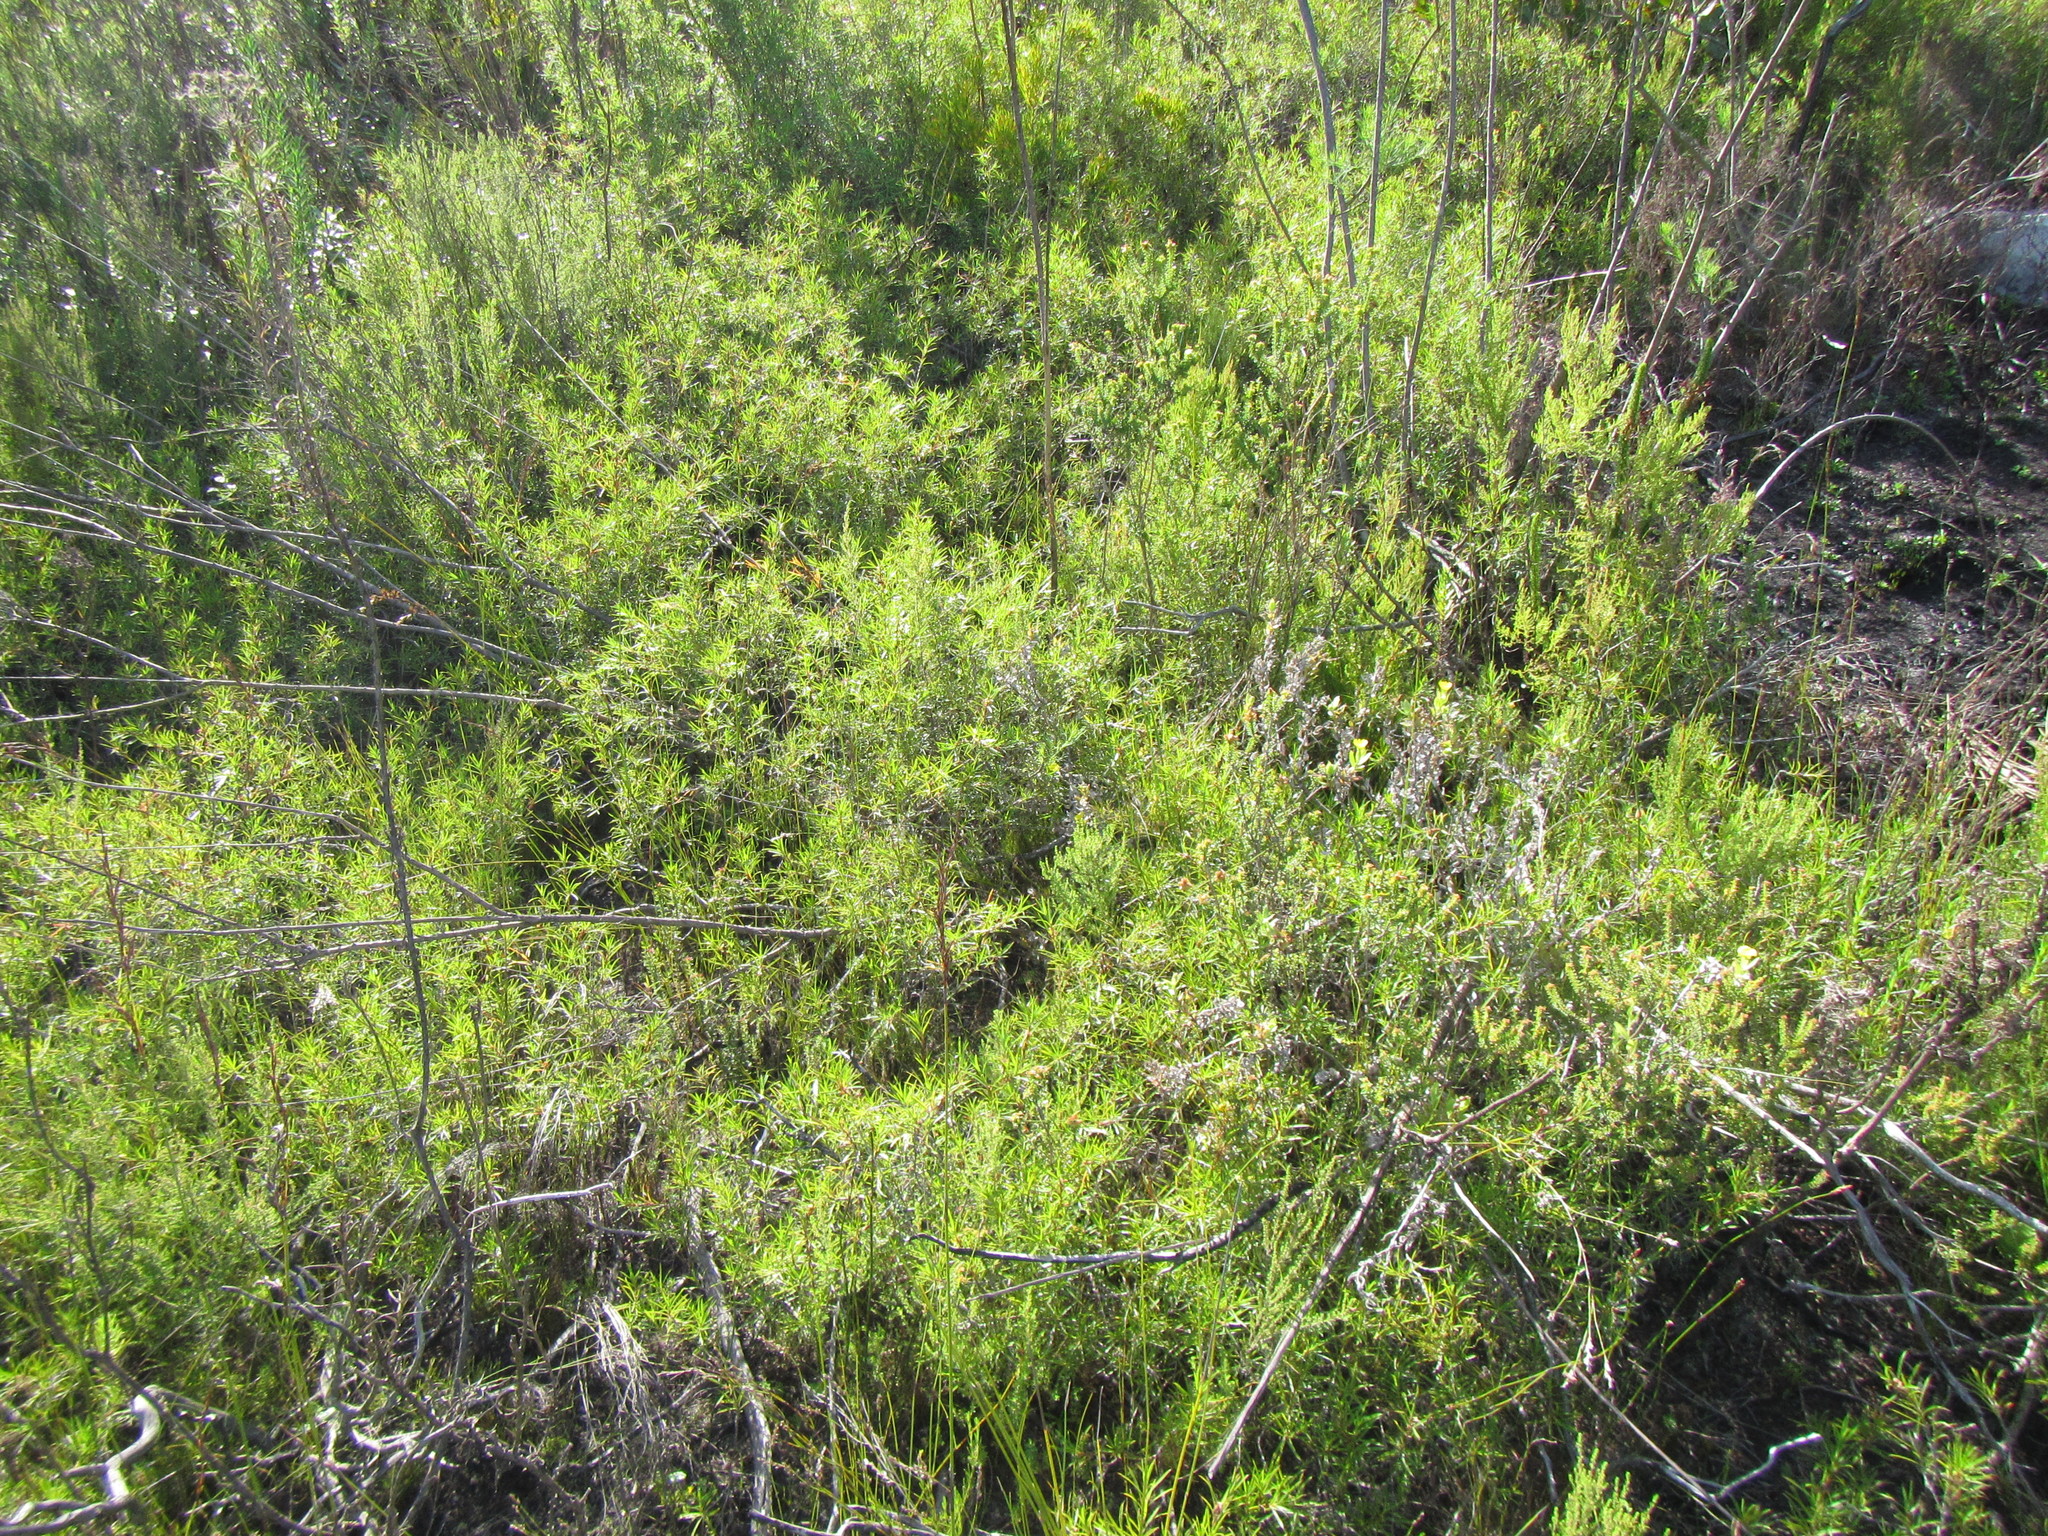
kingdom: Plantae
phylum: Tracheophyta
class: Magnoliopsida
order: Rosales
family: Rosaceae
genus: Cliffortia
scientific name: Cliffortia scandens
